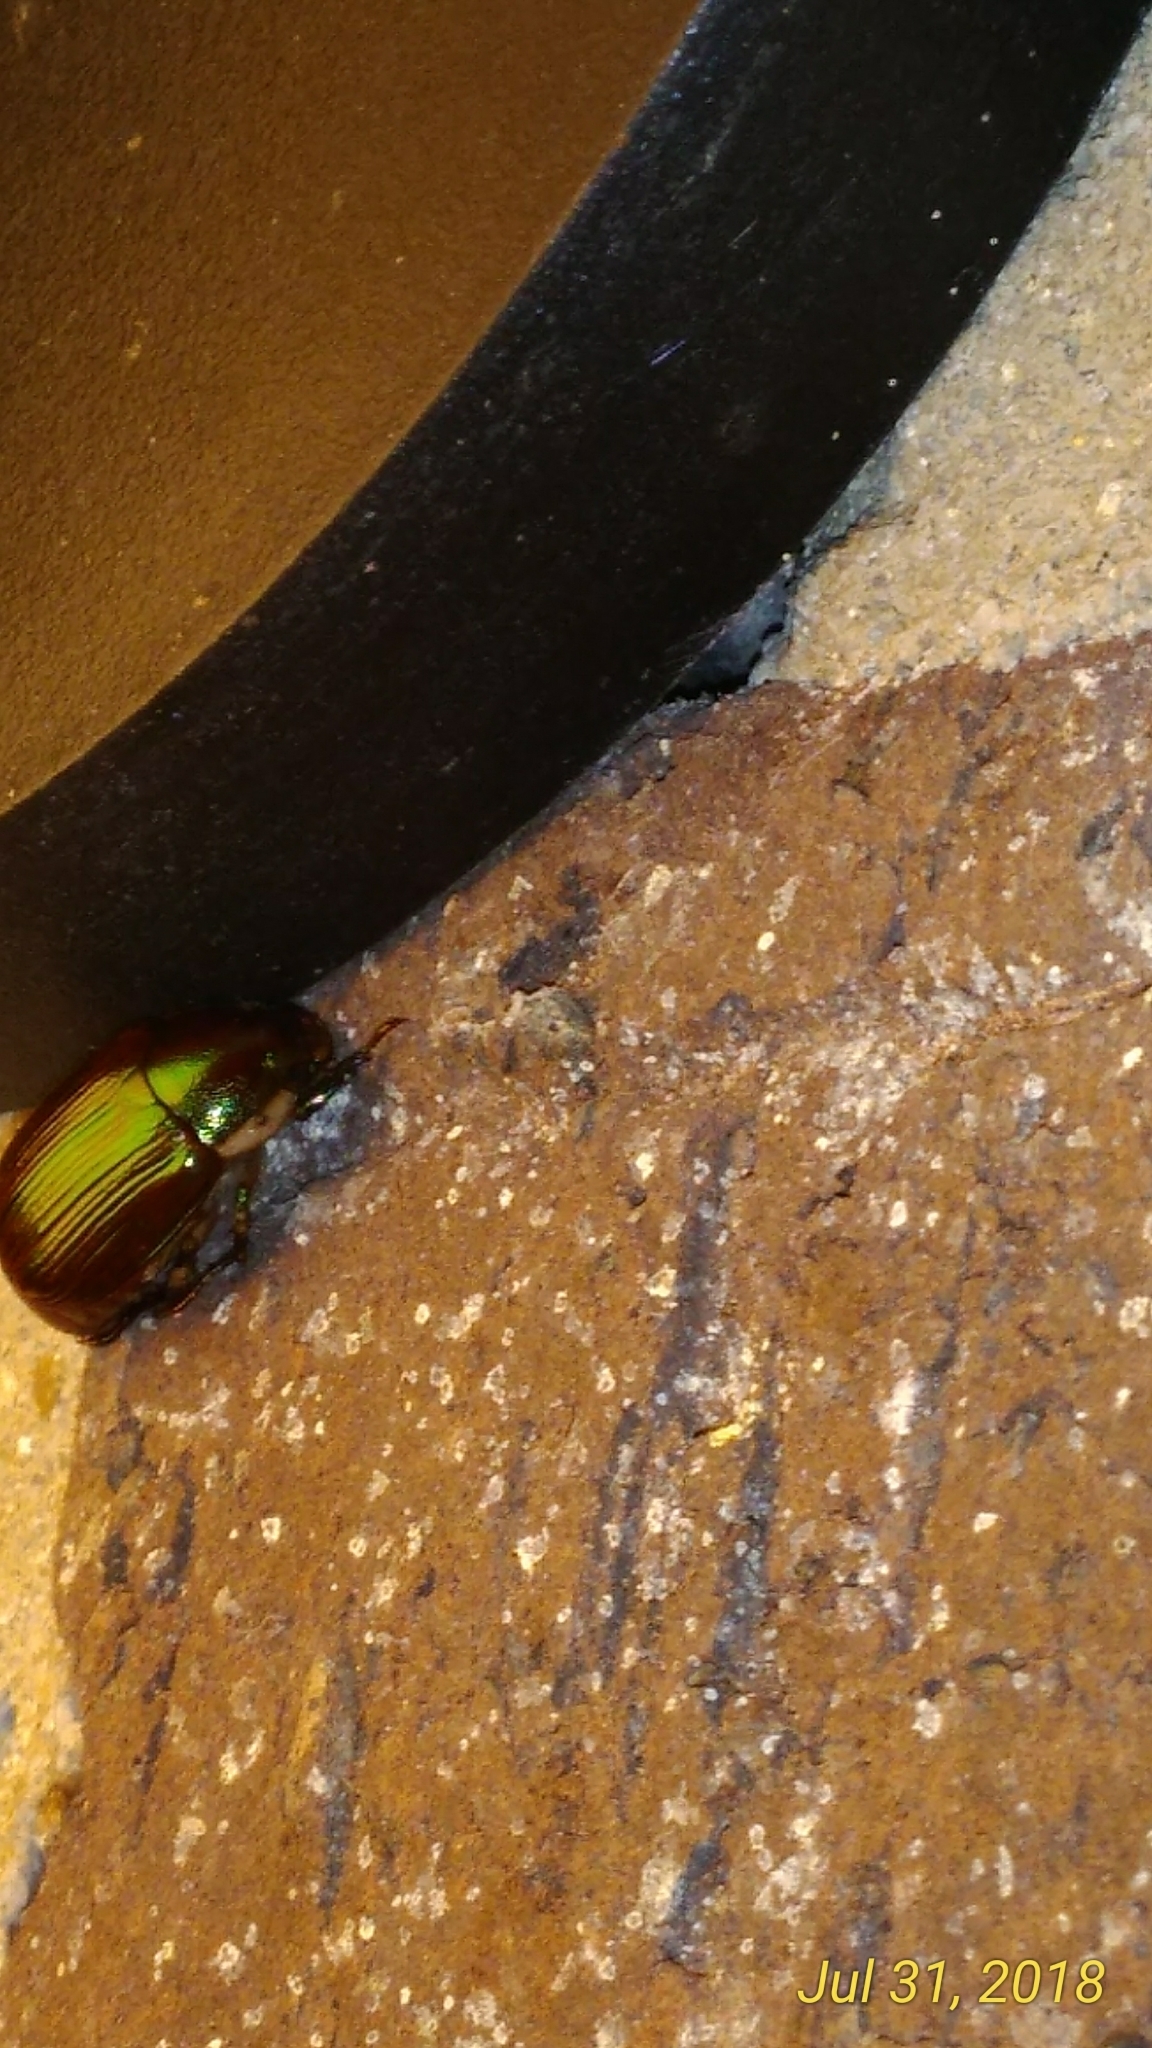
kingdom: Animalia
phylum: Arthropoda
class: Insecta
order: Coleoptera
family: Scarabaeidae
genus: Callistethus
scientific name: Callistethus marginatus
